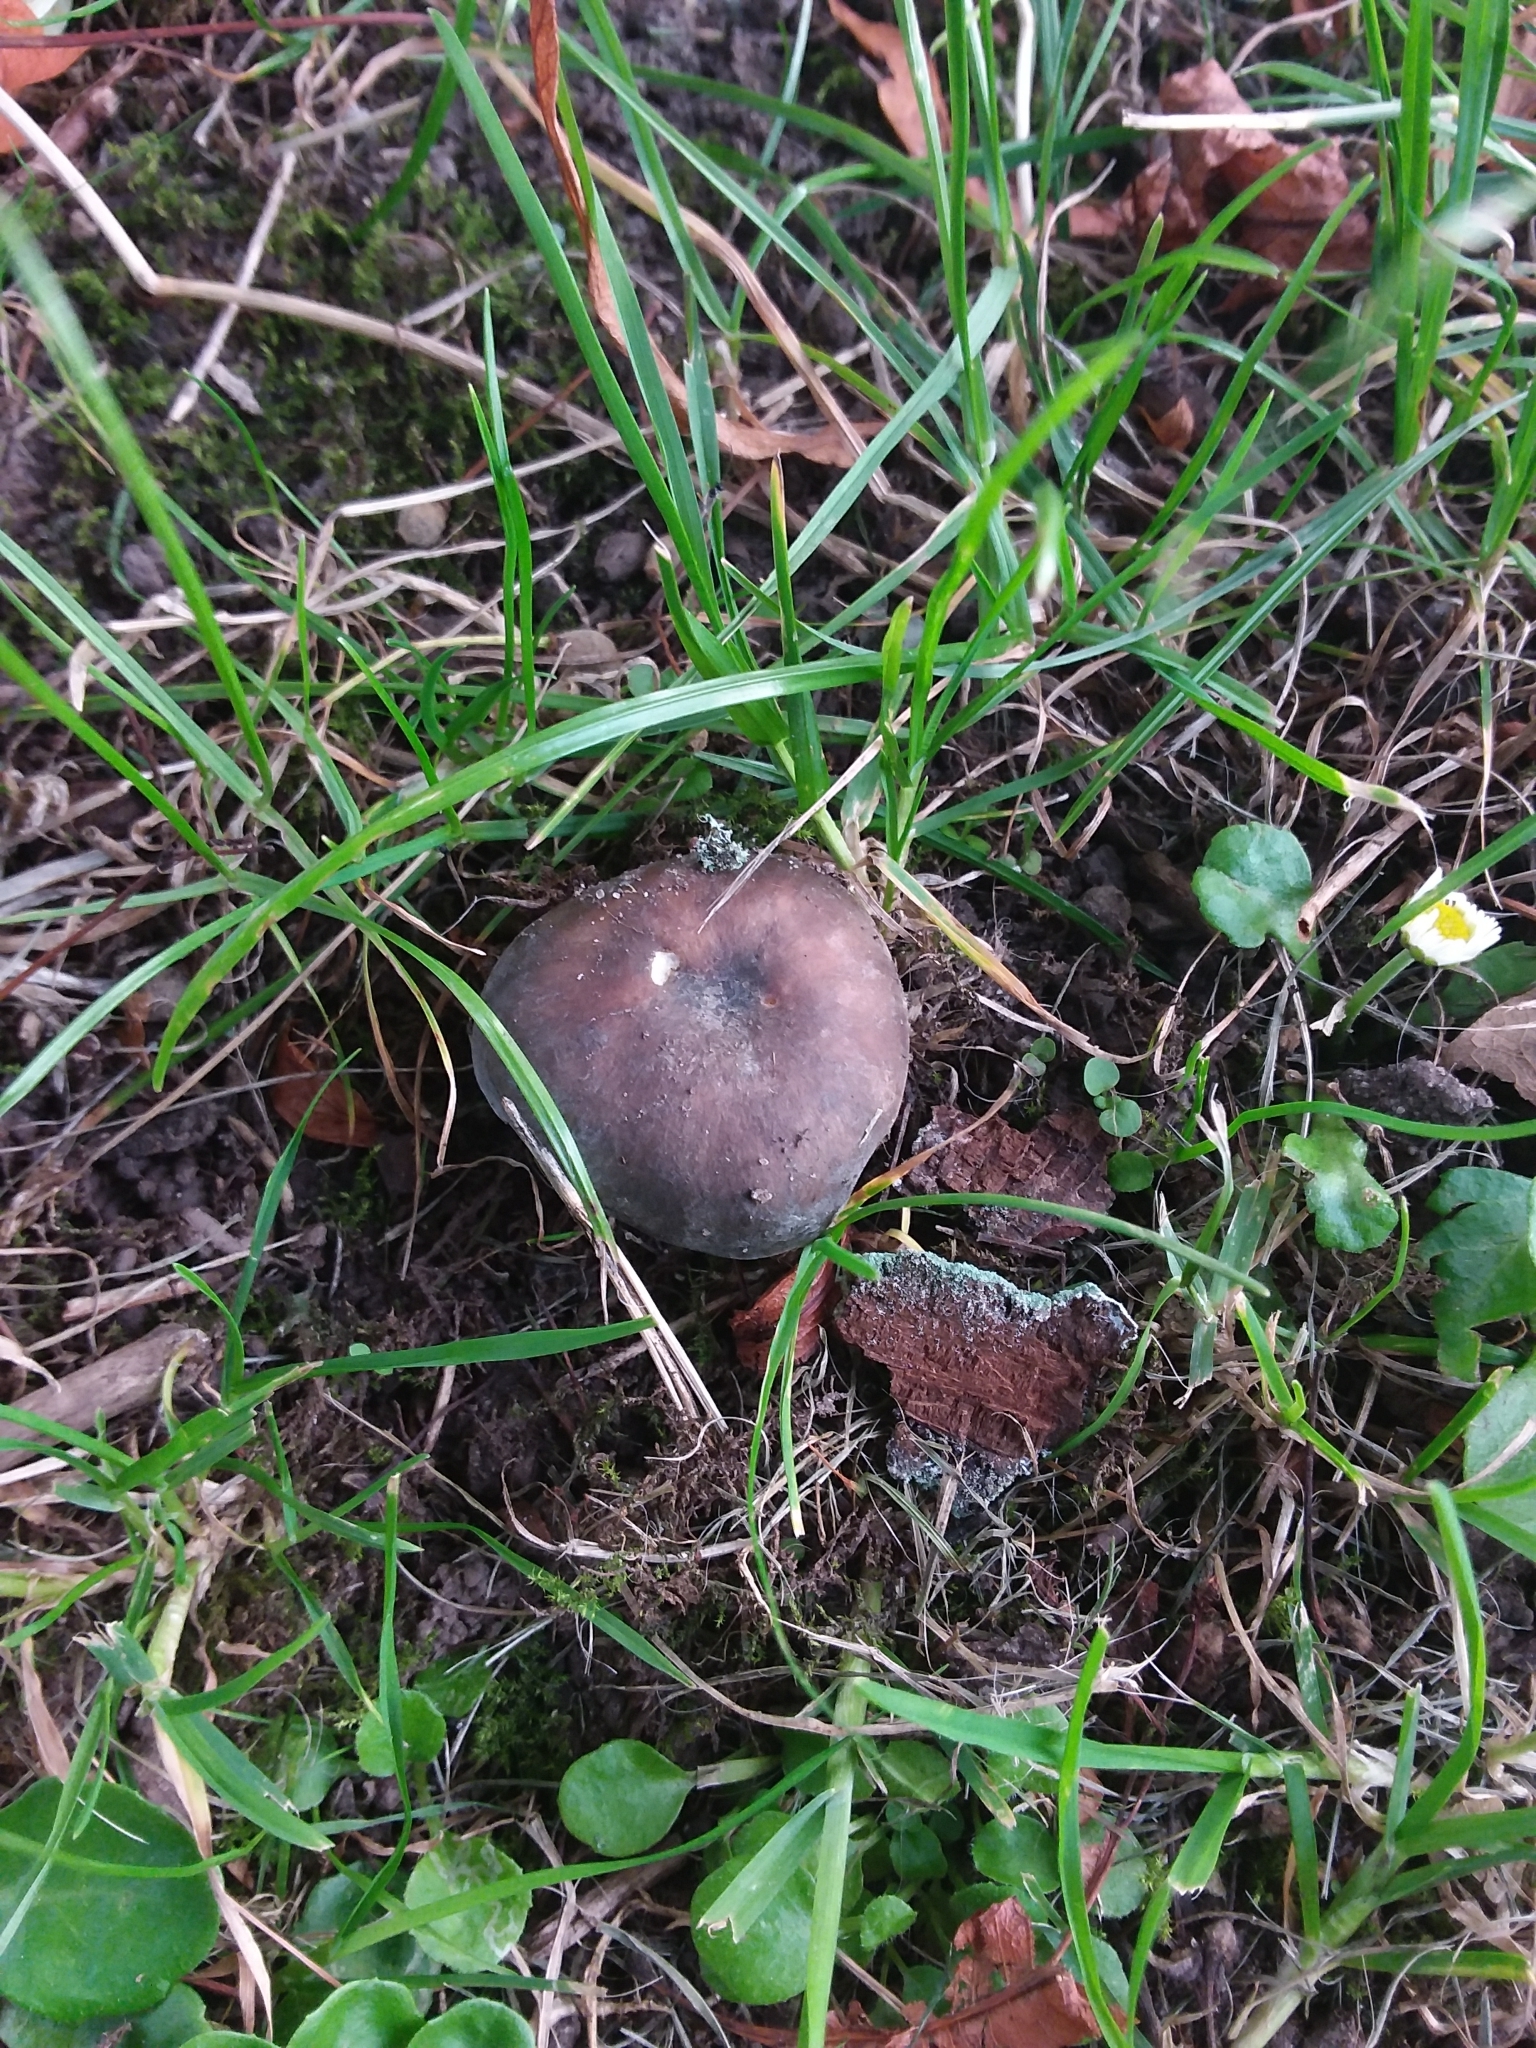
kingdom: Fungi
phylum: Basidiomycota
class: Agaricomycetes
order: Russulales
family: Russulaceae
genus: Russula
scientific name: Russula cyanoxantha
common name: Charcoal burner
